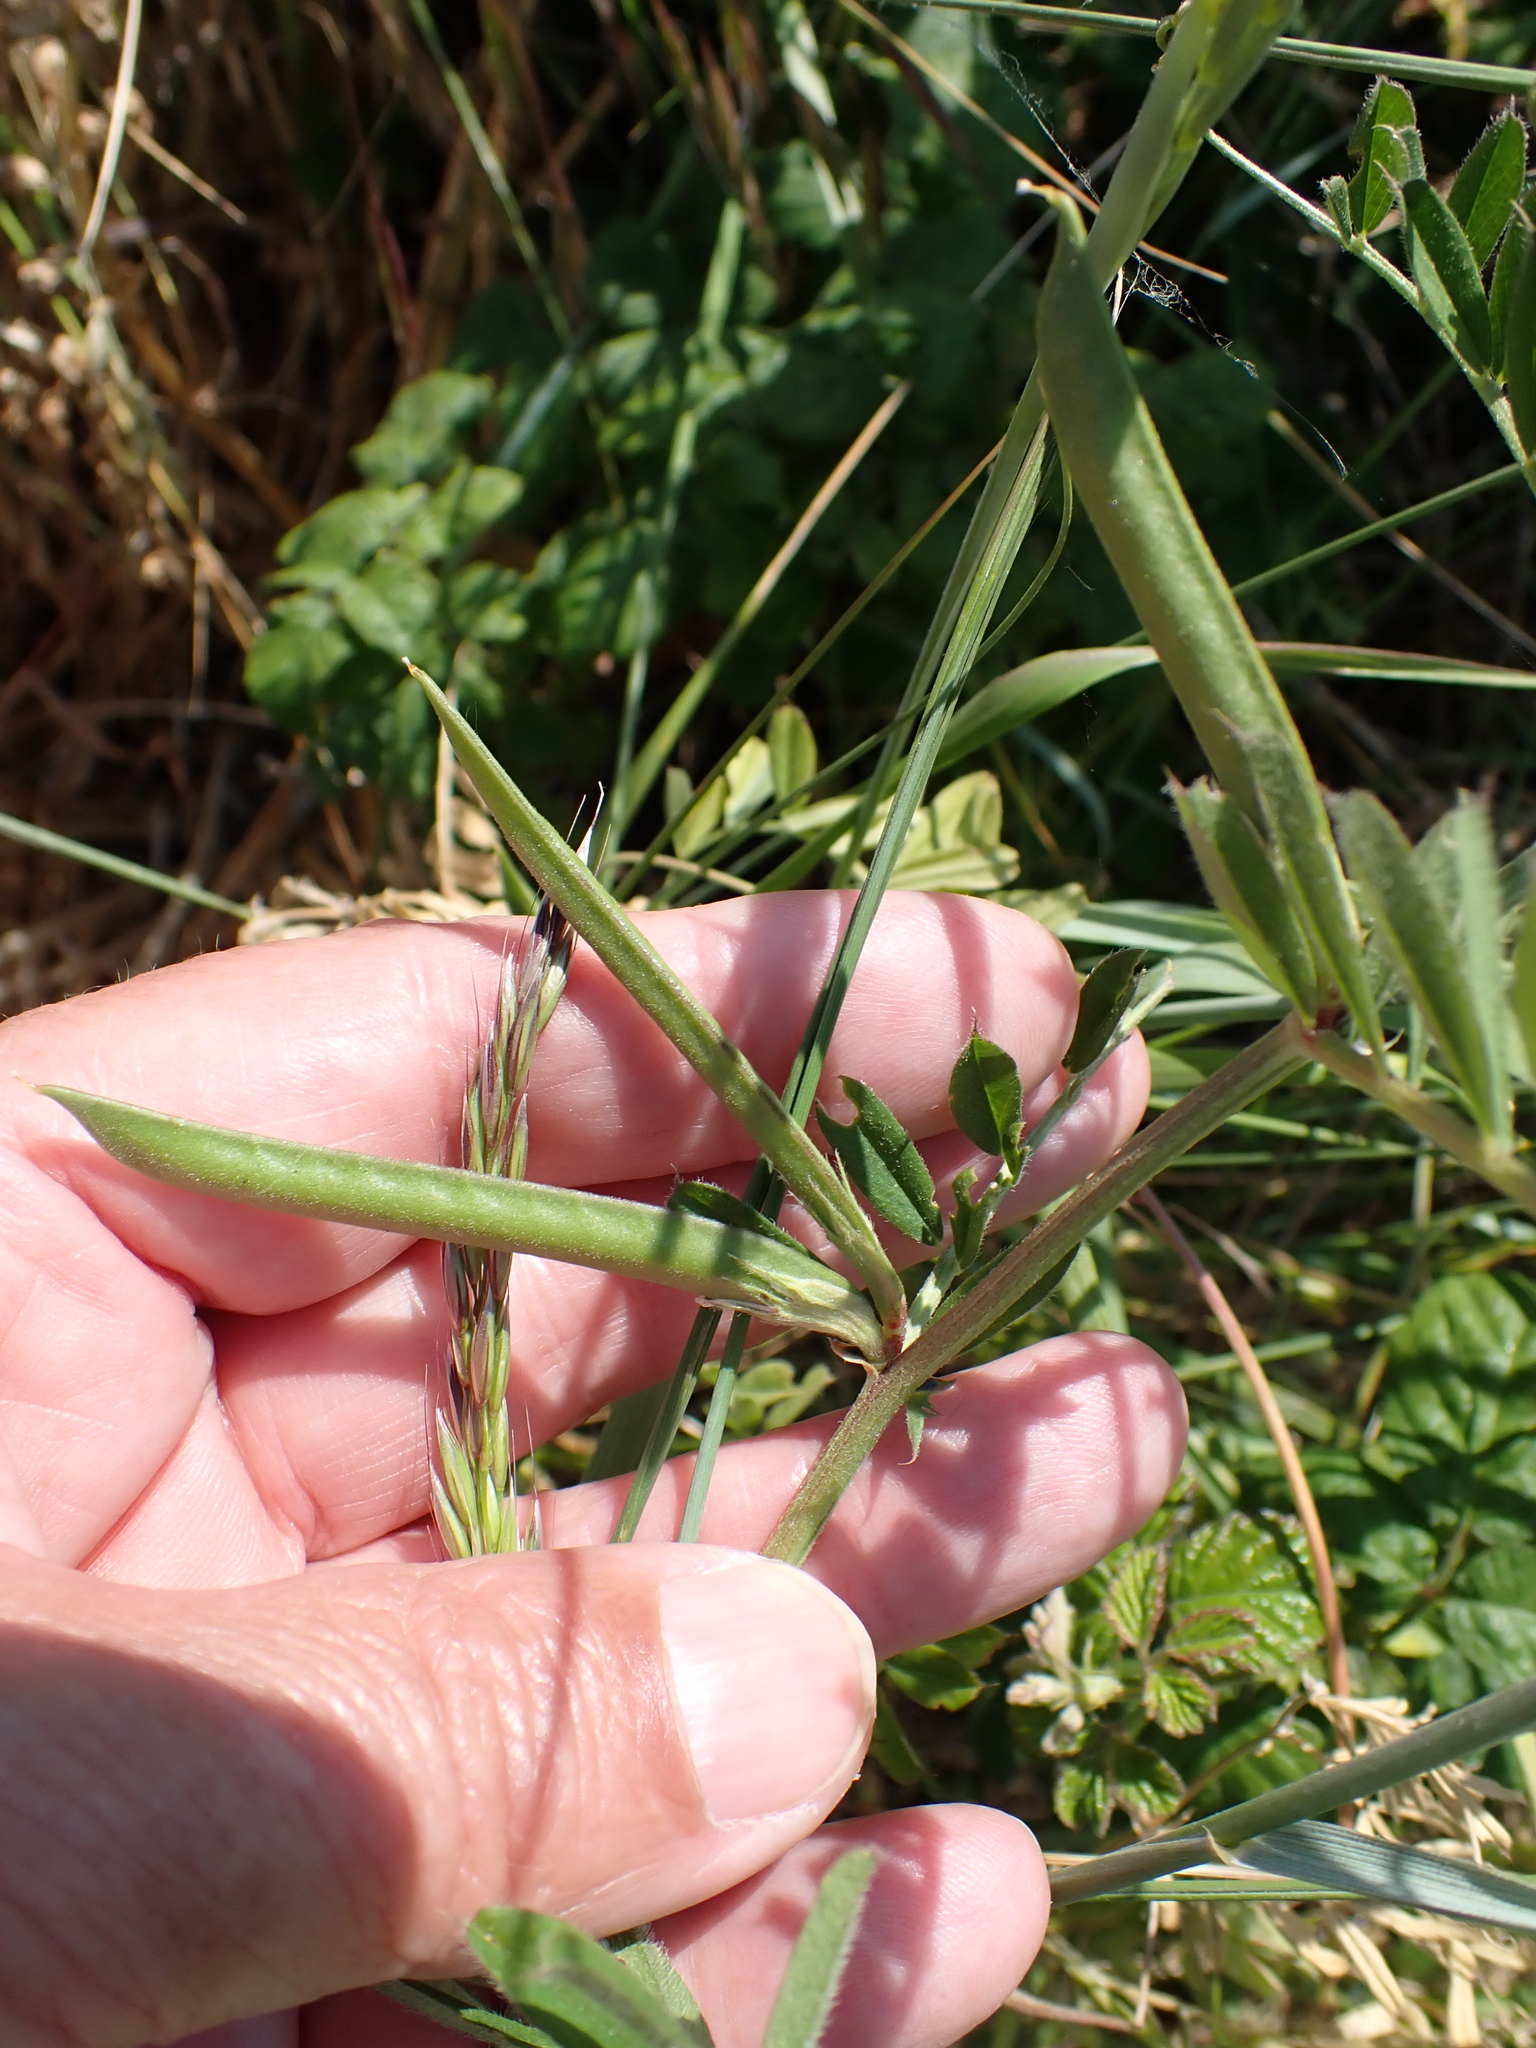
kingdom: Plantae
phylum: Tracheophyta
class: Magnoliopsida
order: Fabales
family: Fabaceae
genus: Vicia
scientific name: Vicia sativa
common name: Garden vetch
